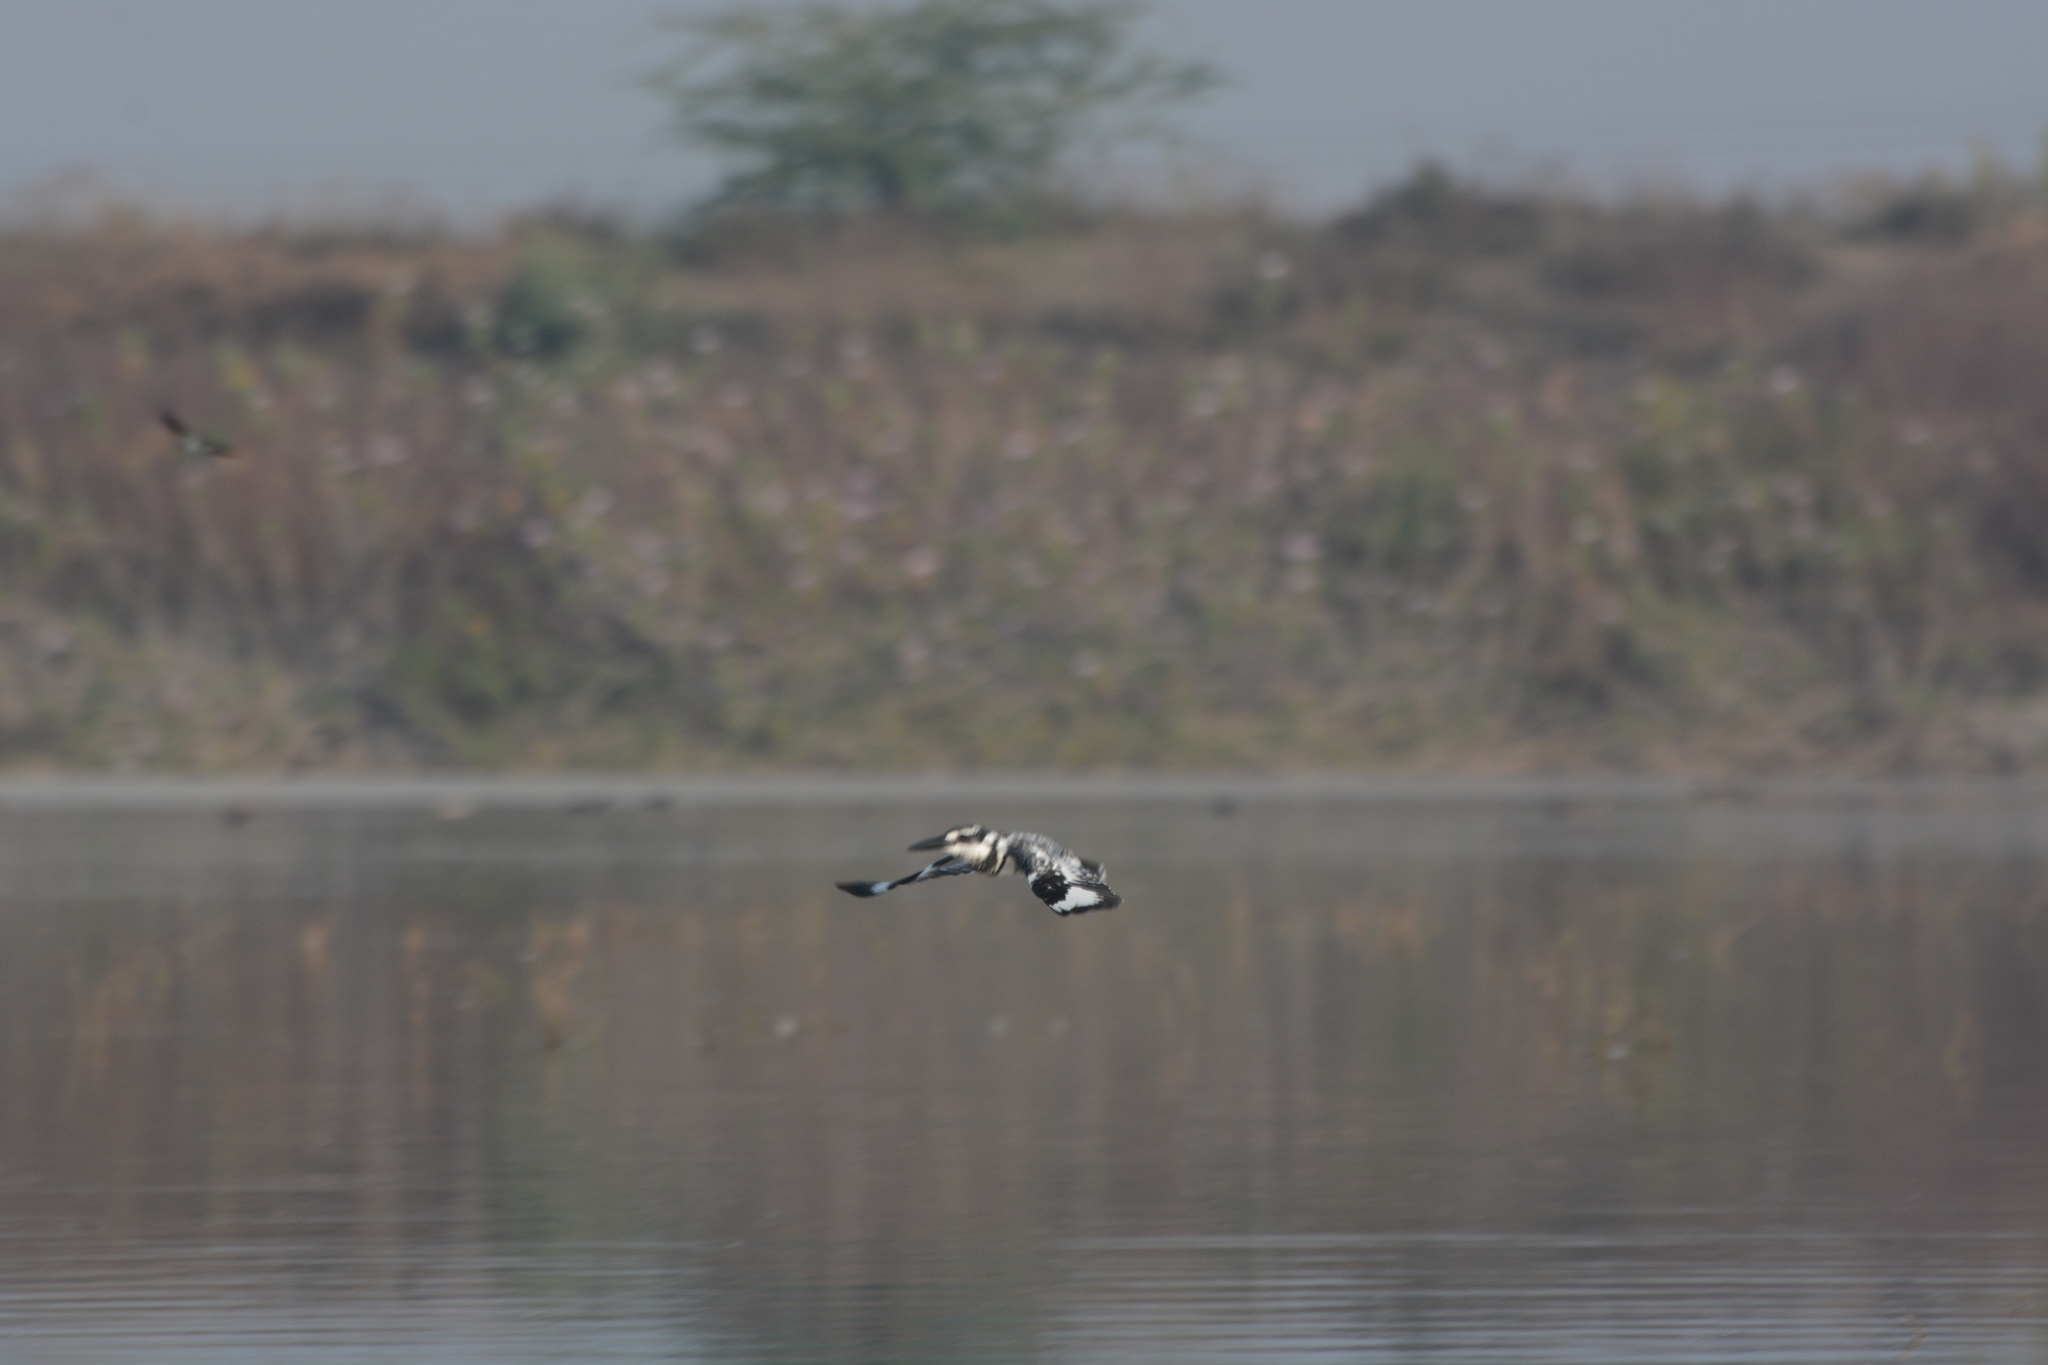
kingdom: Animalia
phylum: Chordata
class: Aves
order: Coraciiformes
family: Alcedinidae
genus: Ceryle
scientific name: Ceryle rudis
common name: Pied kingfisher
